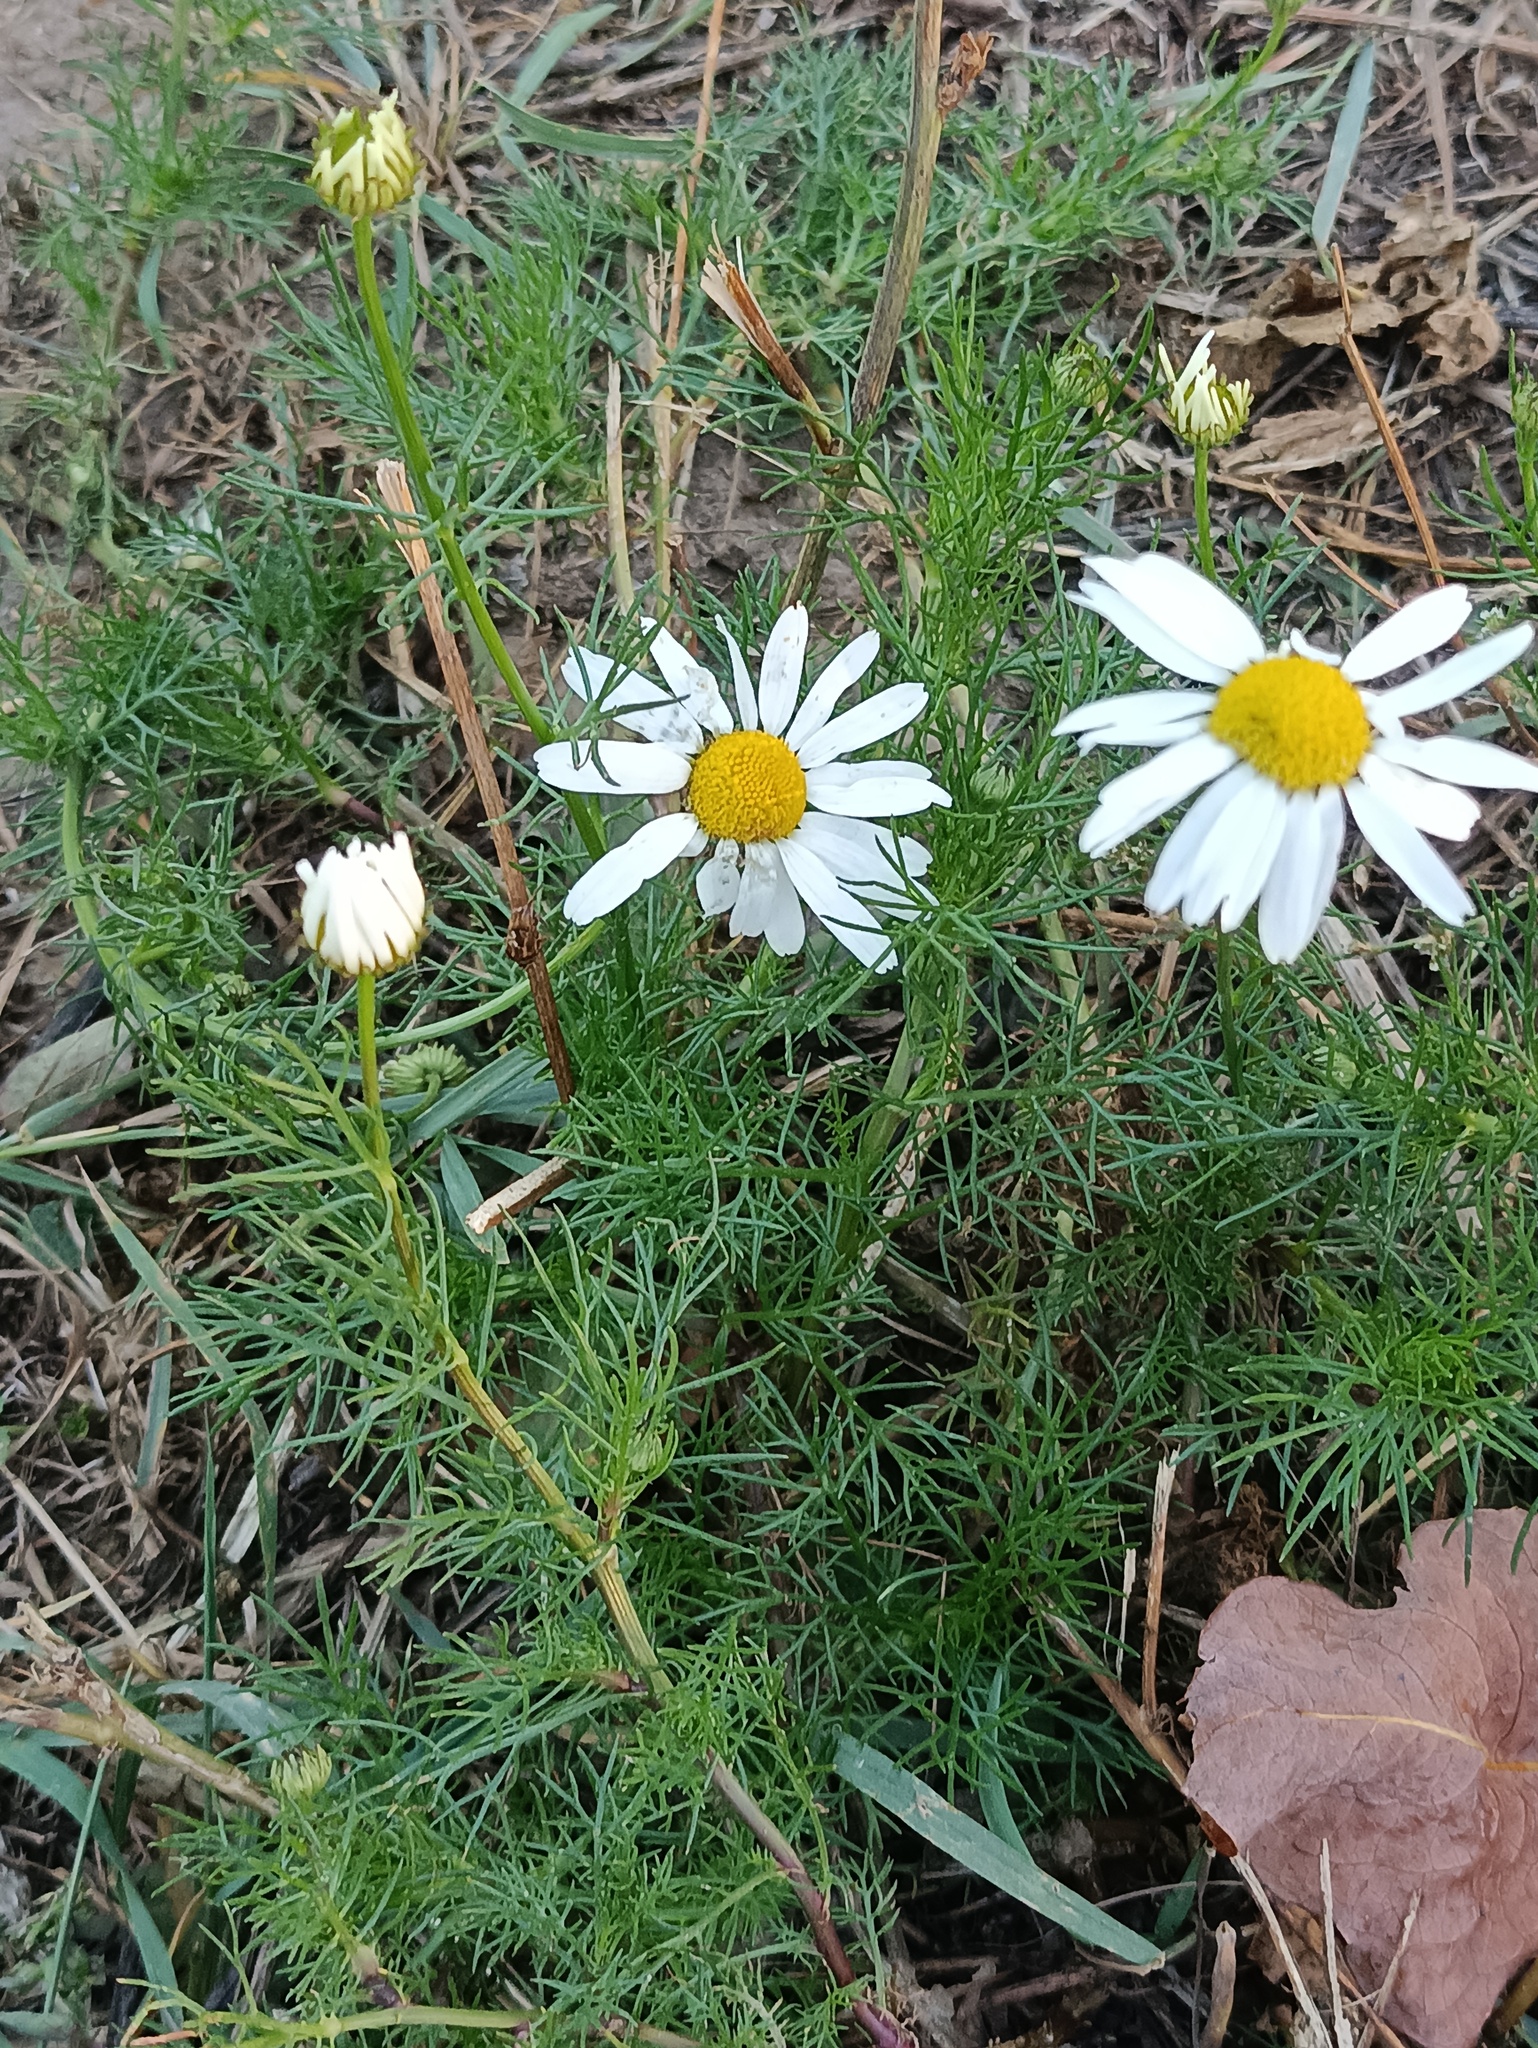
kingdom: Plantae
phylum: Tracheophyta
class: Magnoliopsida
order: Asterales
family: Asteraceae
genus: Tripleurospermum
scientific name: Tripleurospermum inodorum
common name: Scentless mayweed
